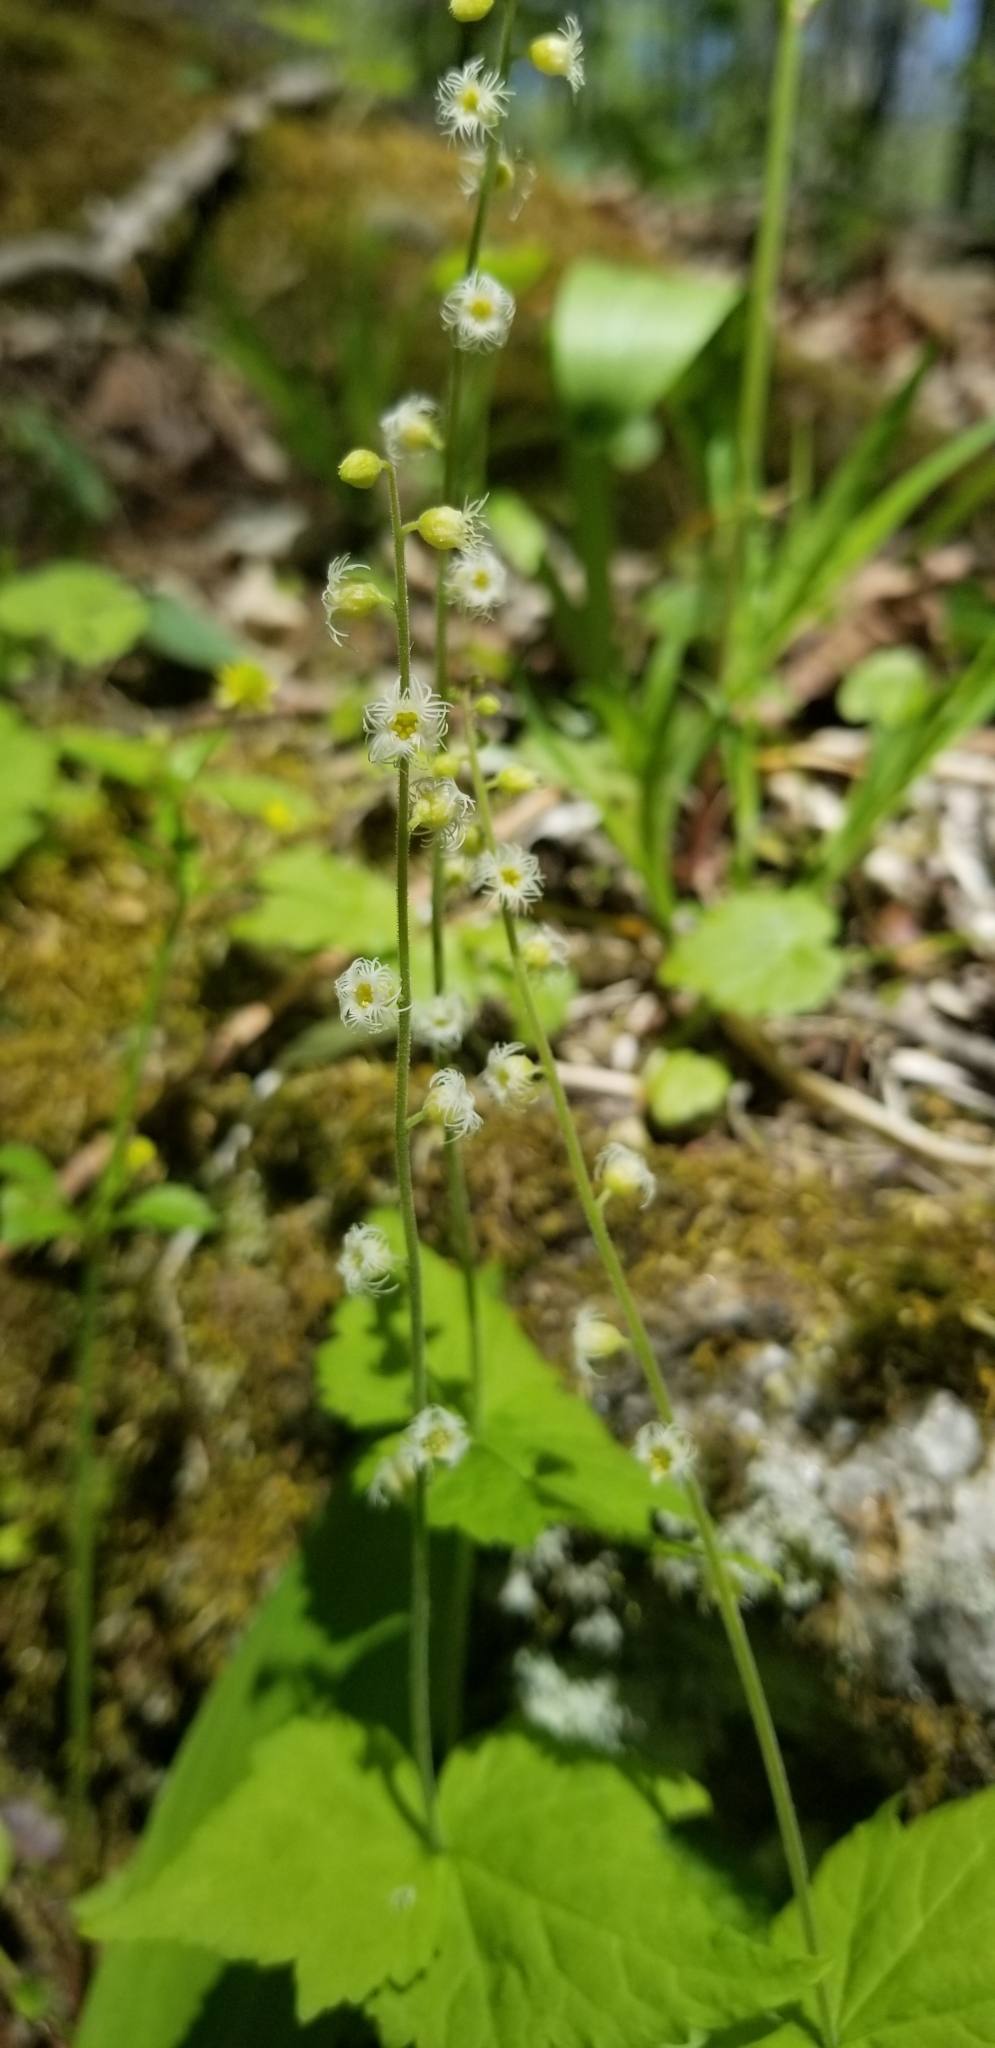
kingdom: Plantae
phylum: Tracheophyta
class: Magnoliopsida
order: Saxifragales
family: Saxifragaceae
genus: Mitella
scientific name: Mitella diphylla
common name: Coolwort
